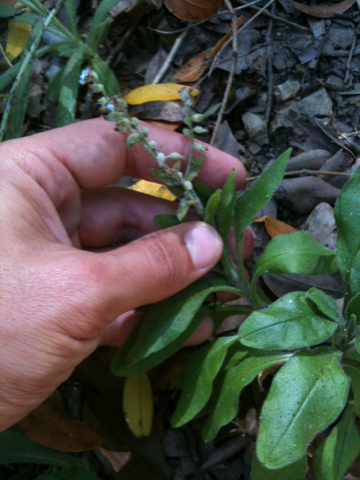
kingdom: Plantae
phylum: Tracheophyta
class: Magnoliopsida
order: Boraginales
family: Boraginaceae
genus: Myosotis
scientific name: Myosotis latifolia
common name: Broadleaf forget-me-not
